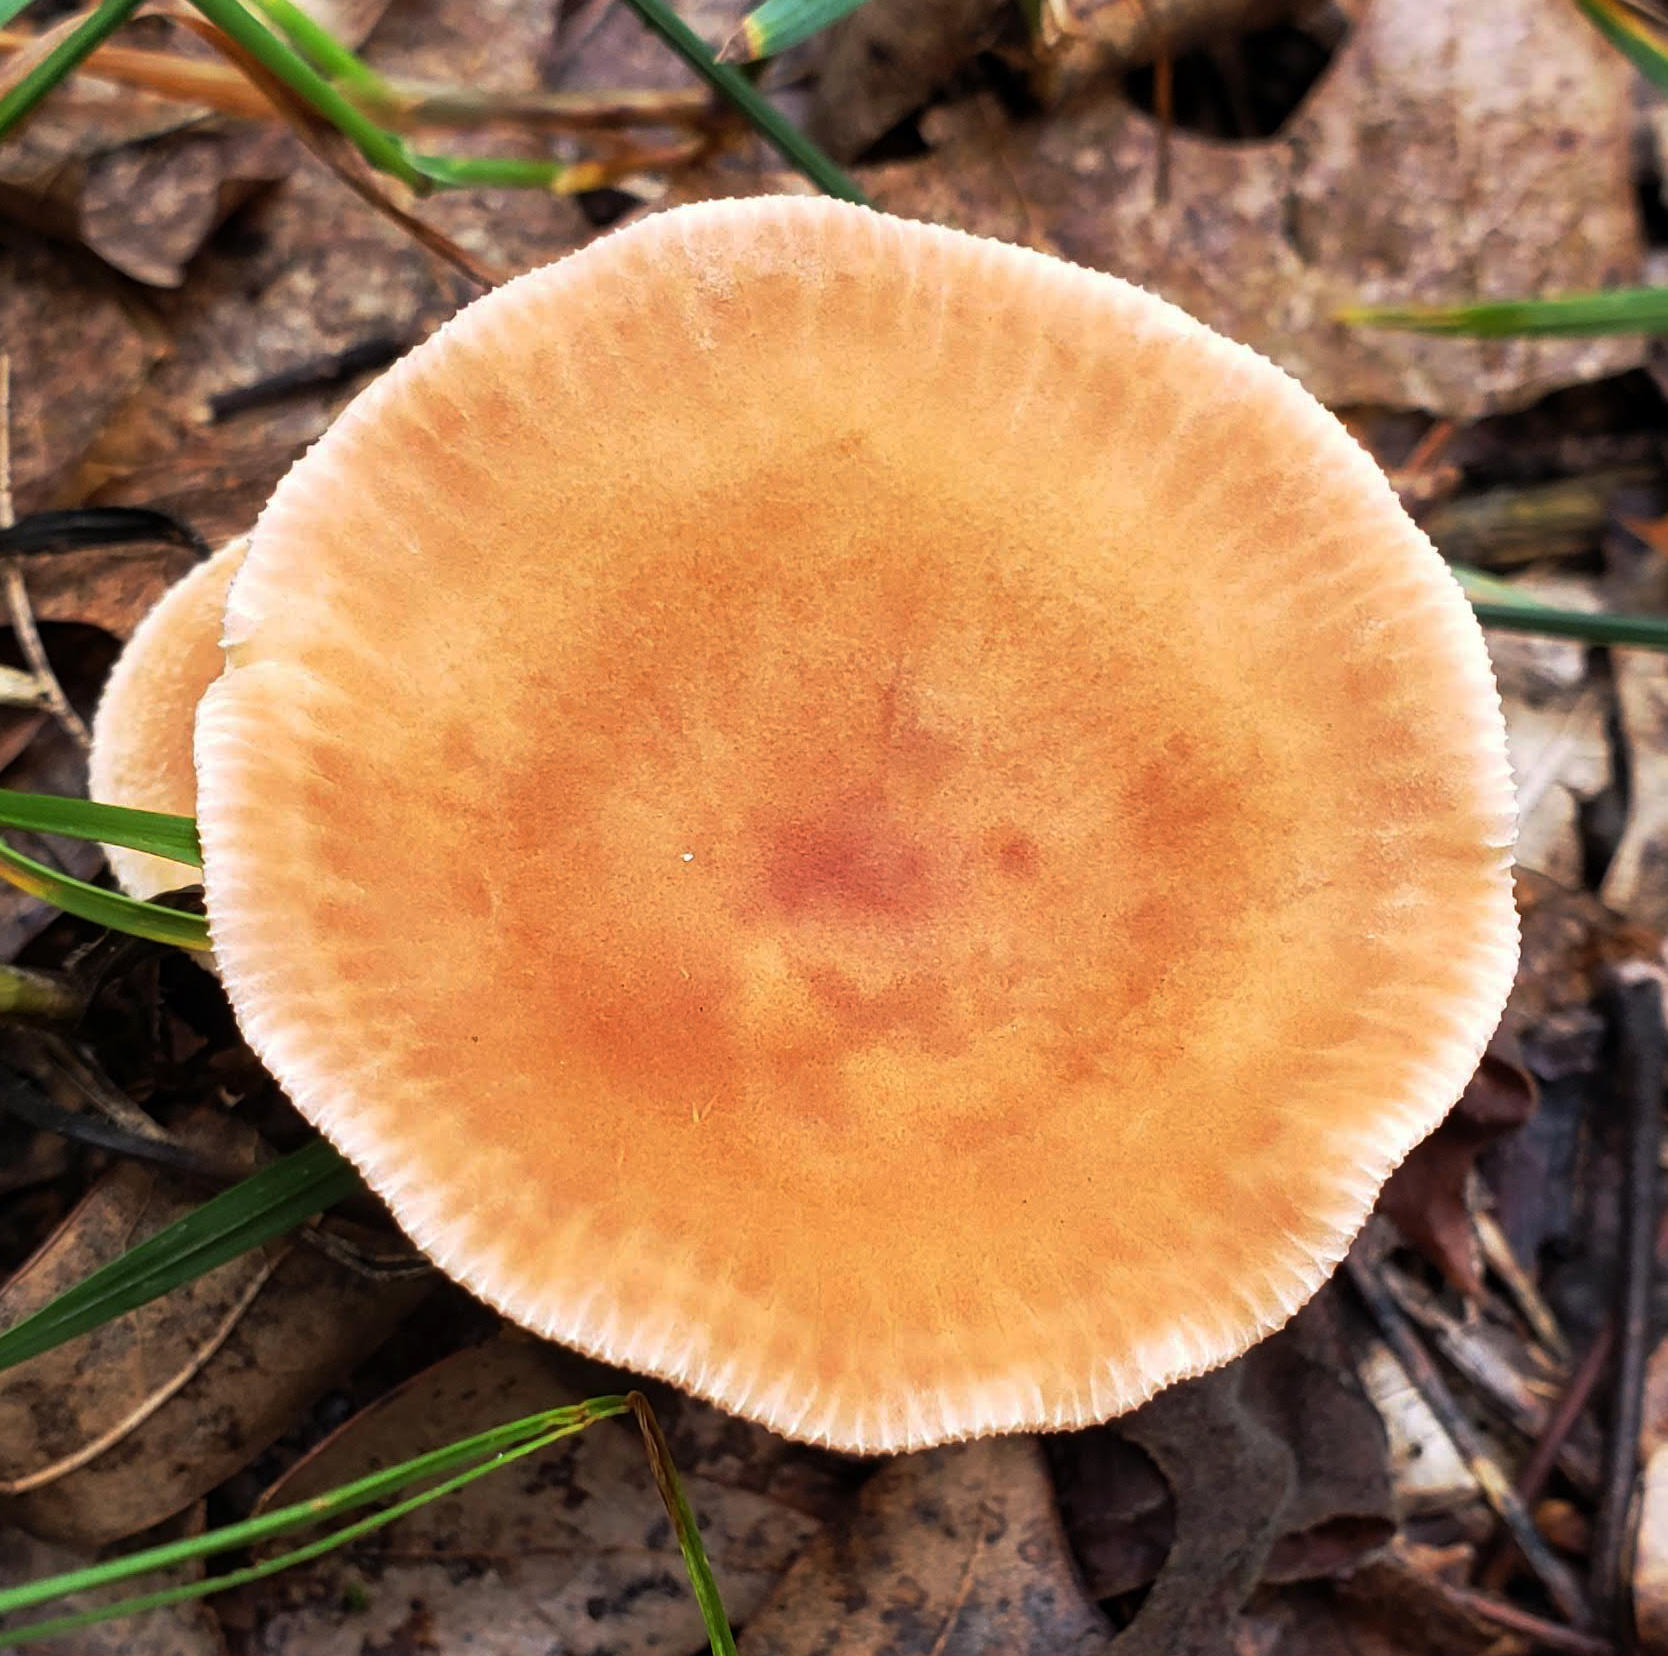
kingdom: Fungi
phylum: Basidiomycota
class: Agaricomycetes
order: Agaricales
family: Tricholomataceae
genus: Infundibulicybe
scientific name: Infundibulicybe gibba
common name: Common funnel
